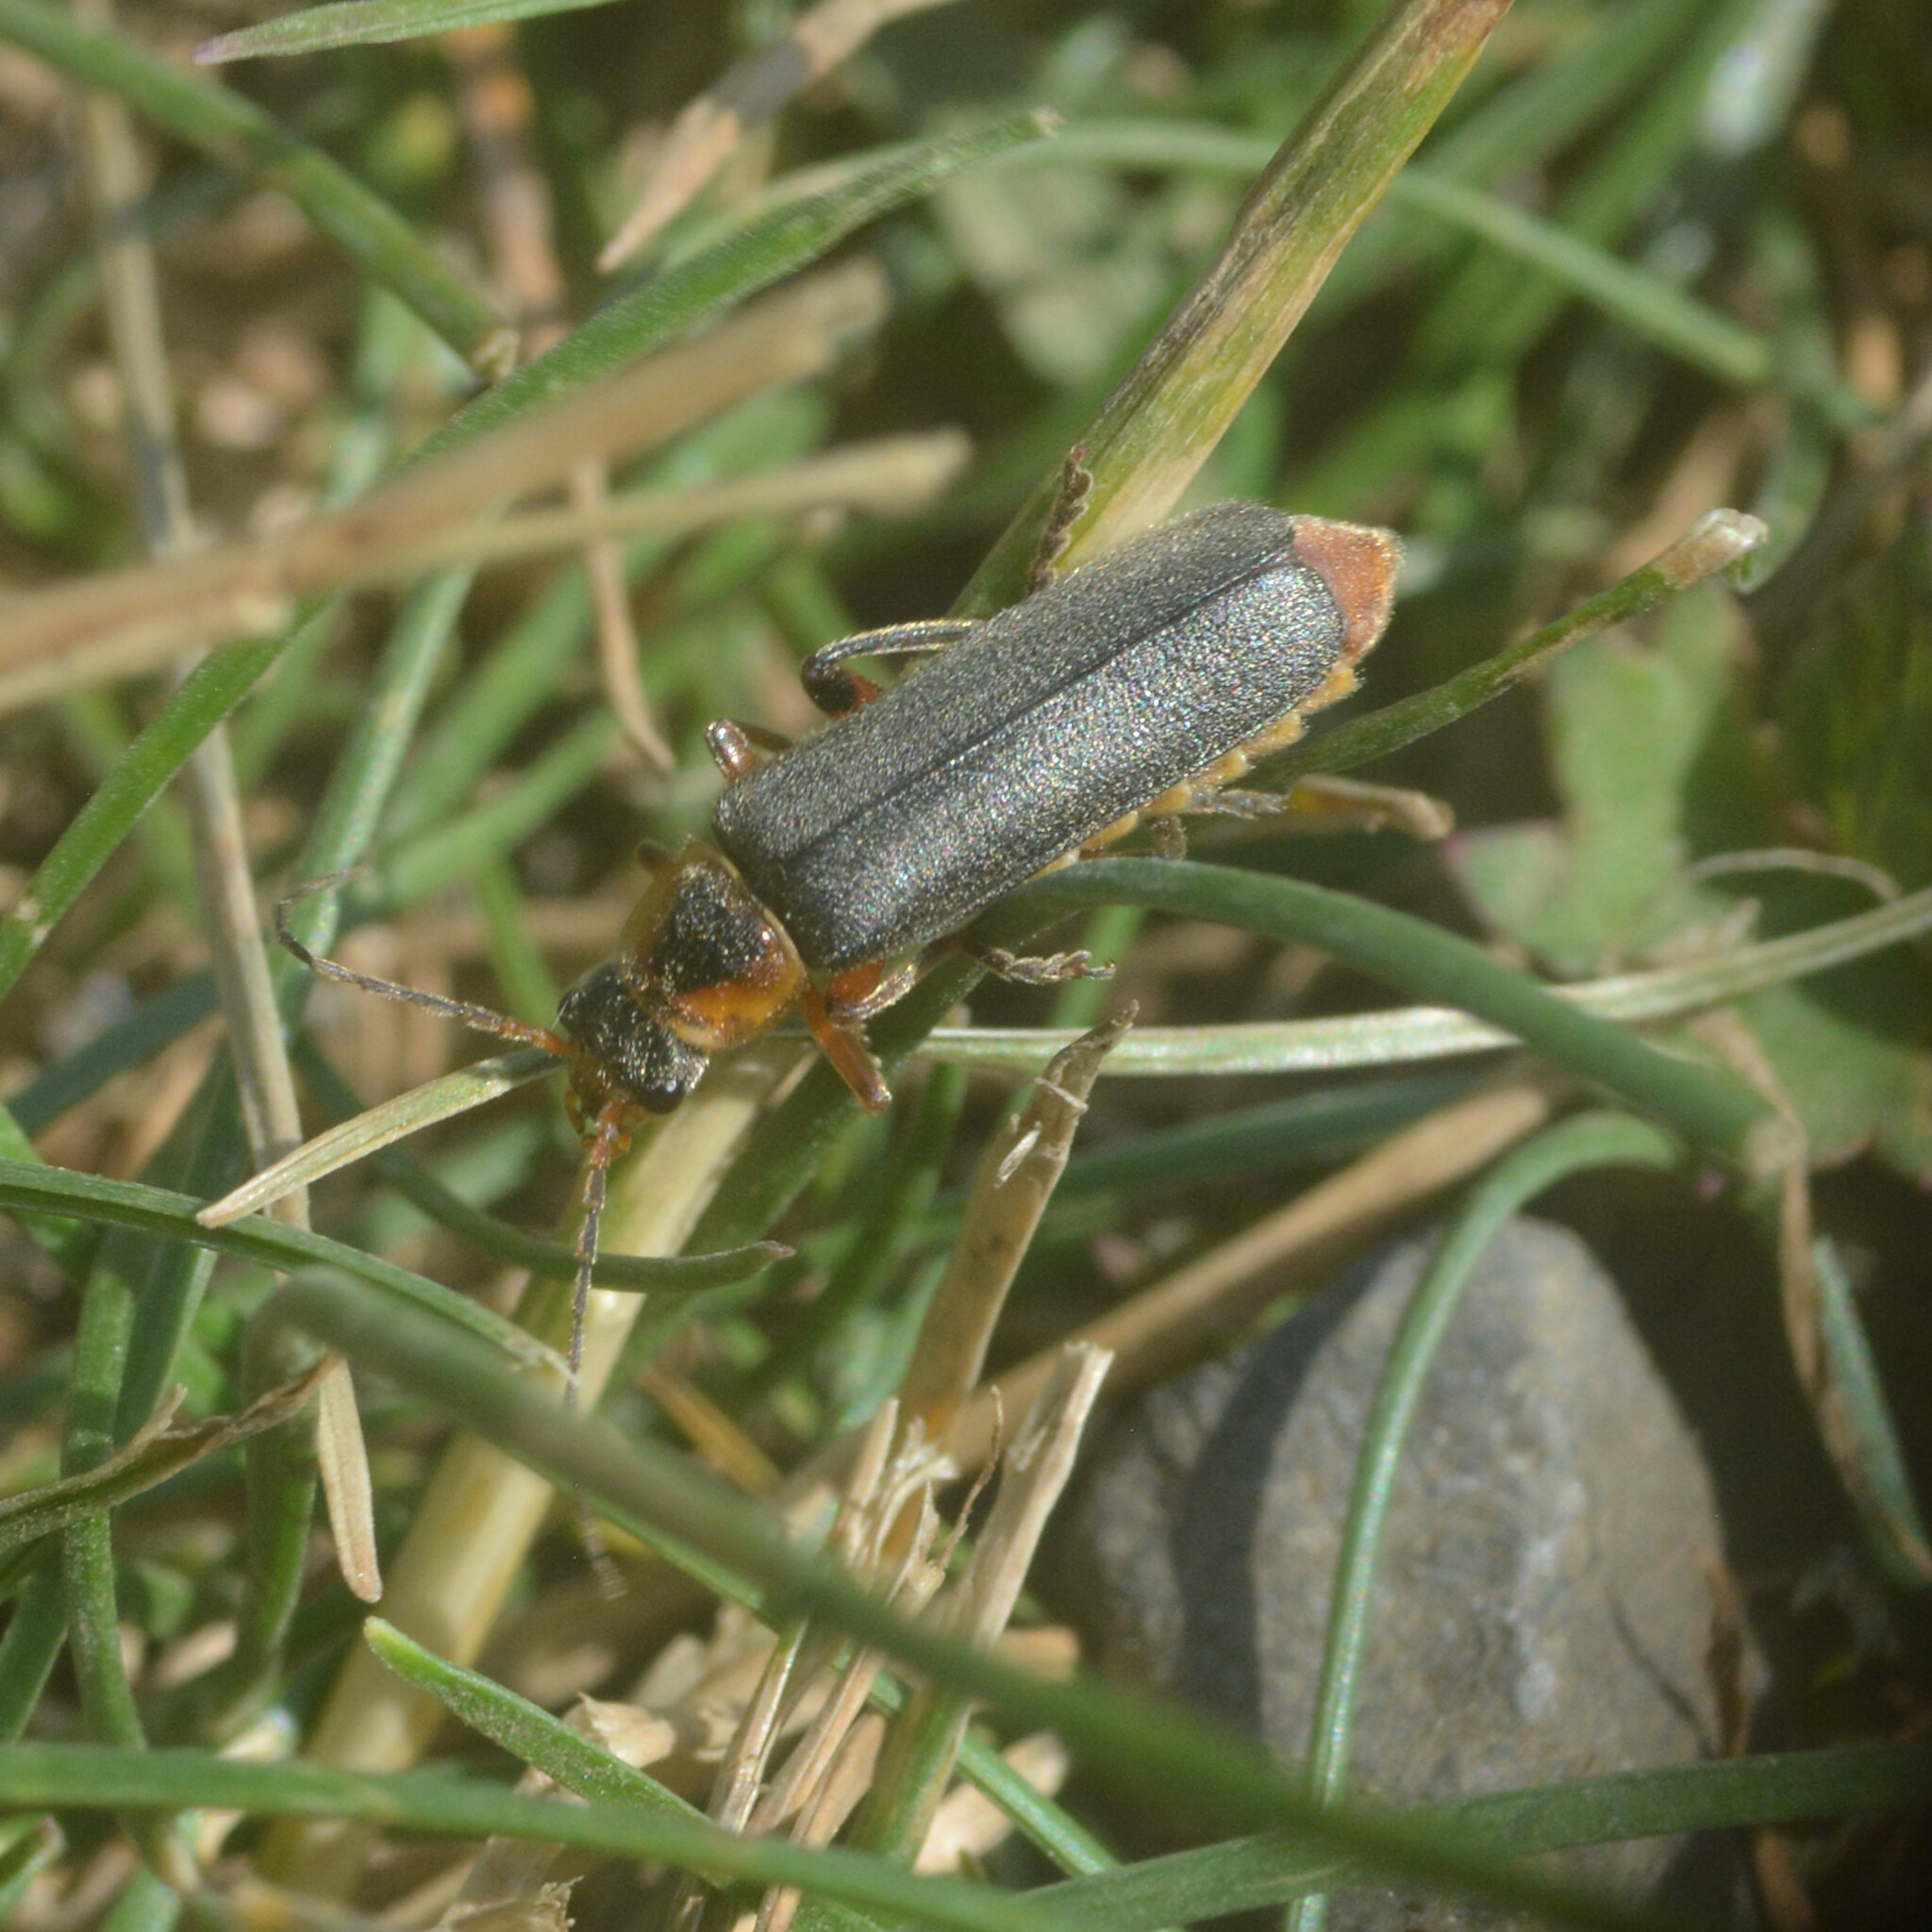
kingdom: Animalia
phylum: Arthropoda
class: Insecta
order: Coleoptera
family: Cantharidae
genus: Cantharis
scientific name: Cantharis nigricans
